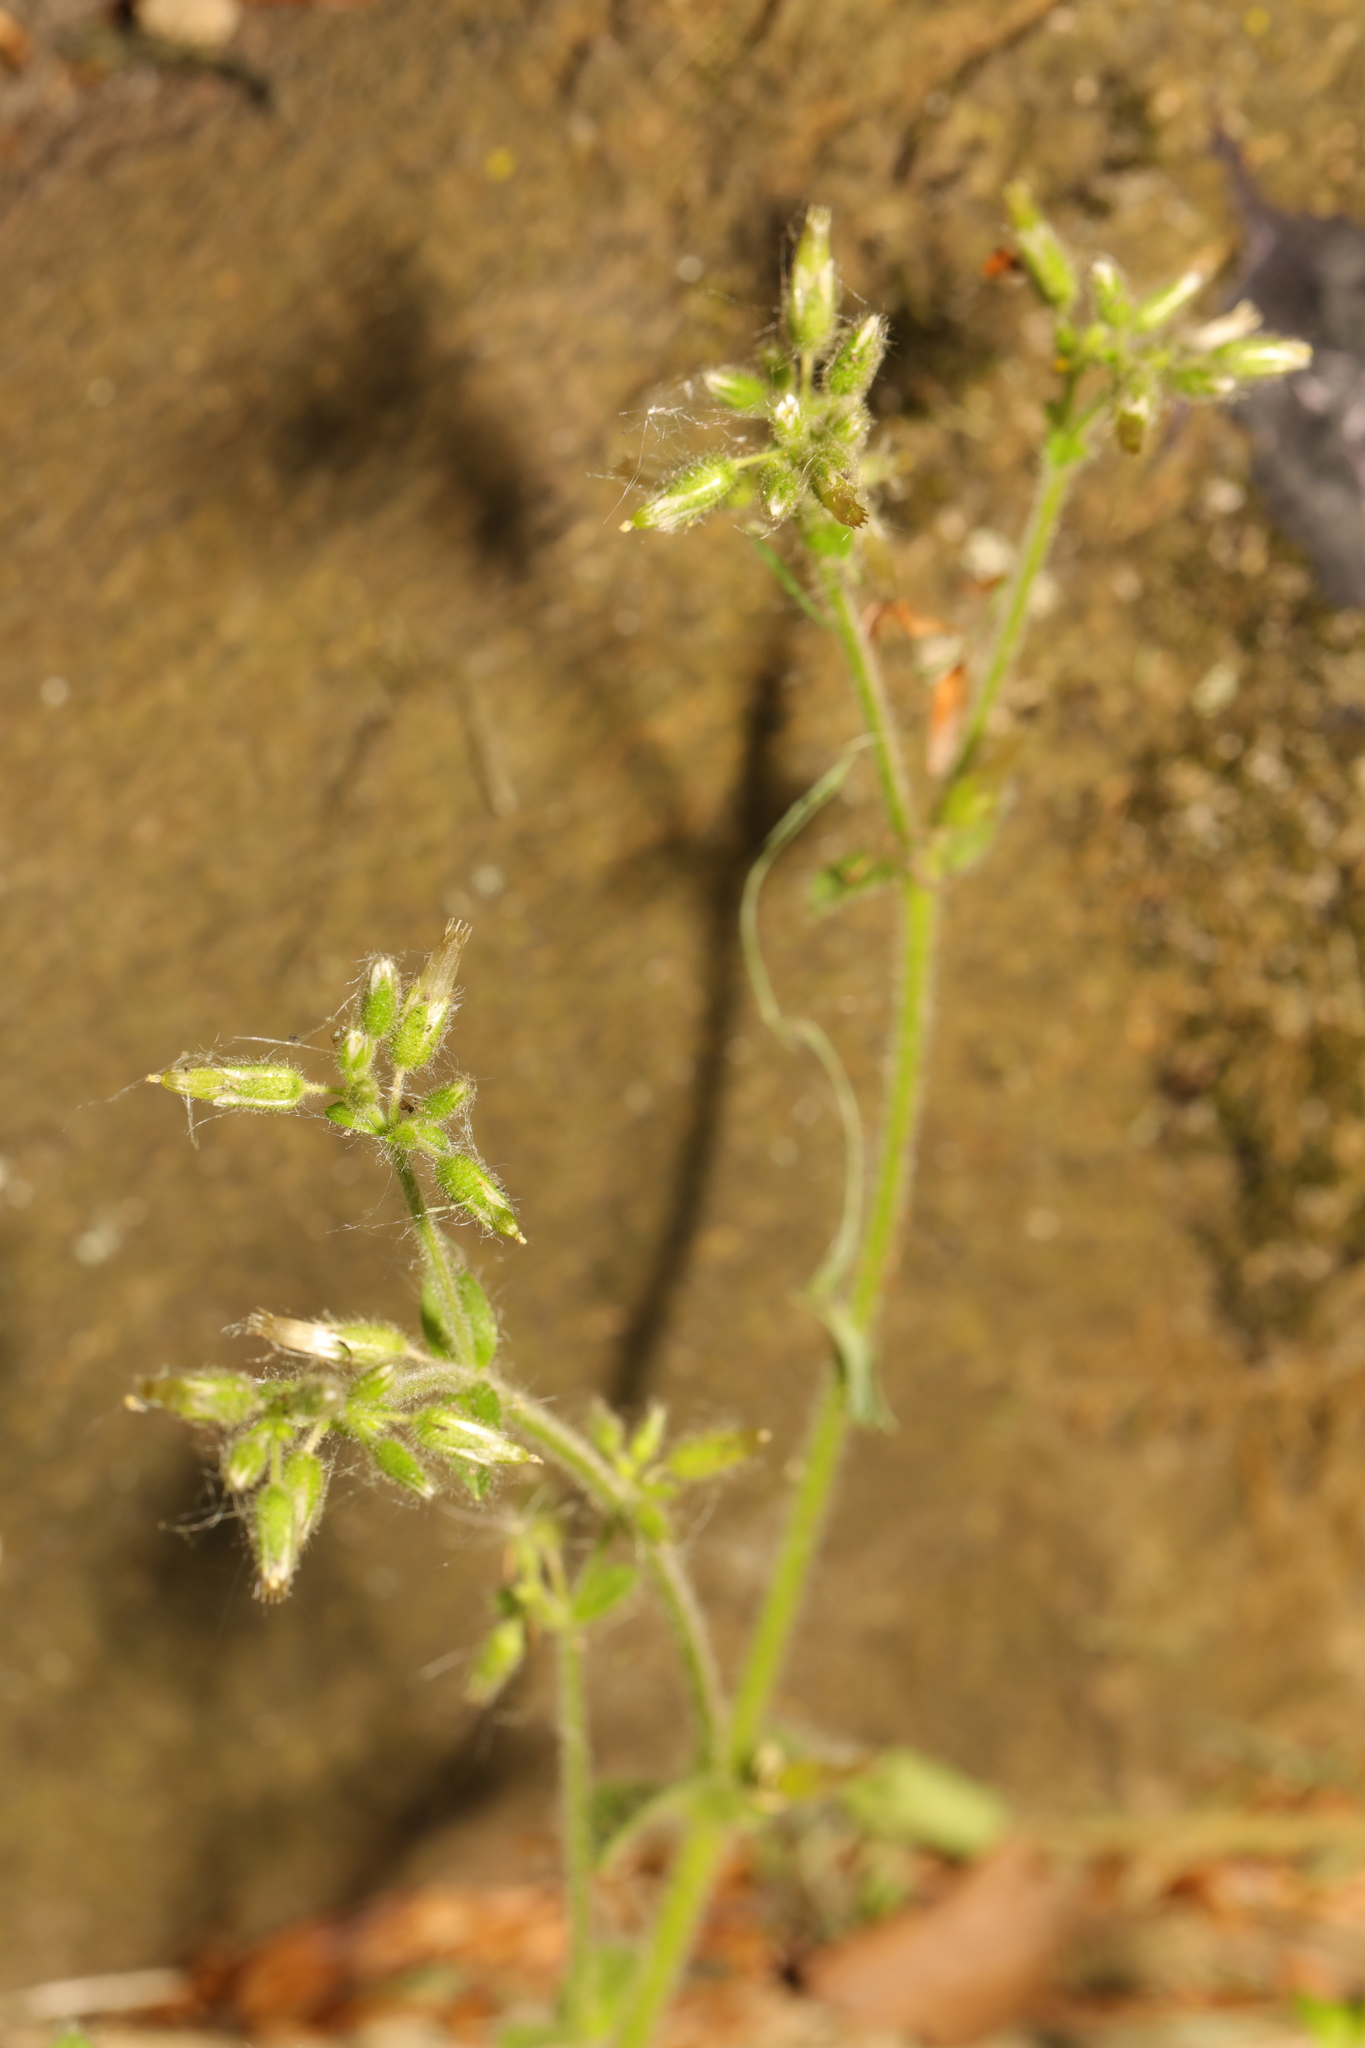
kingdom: Plantae
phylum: Tracheophyta
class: Magnoliopsida
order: Caryophyllales
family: Caryophyllaceae
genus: Cerastium
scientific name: Cerastium glomeratum
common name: Sticky chickweed
